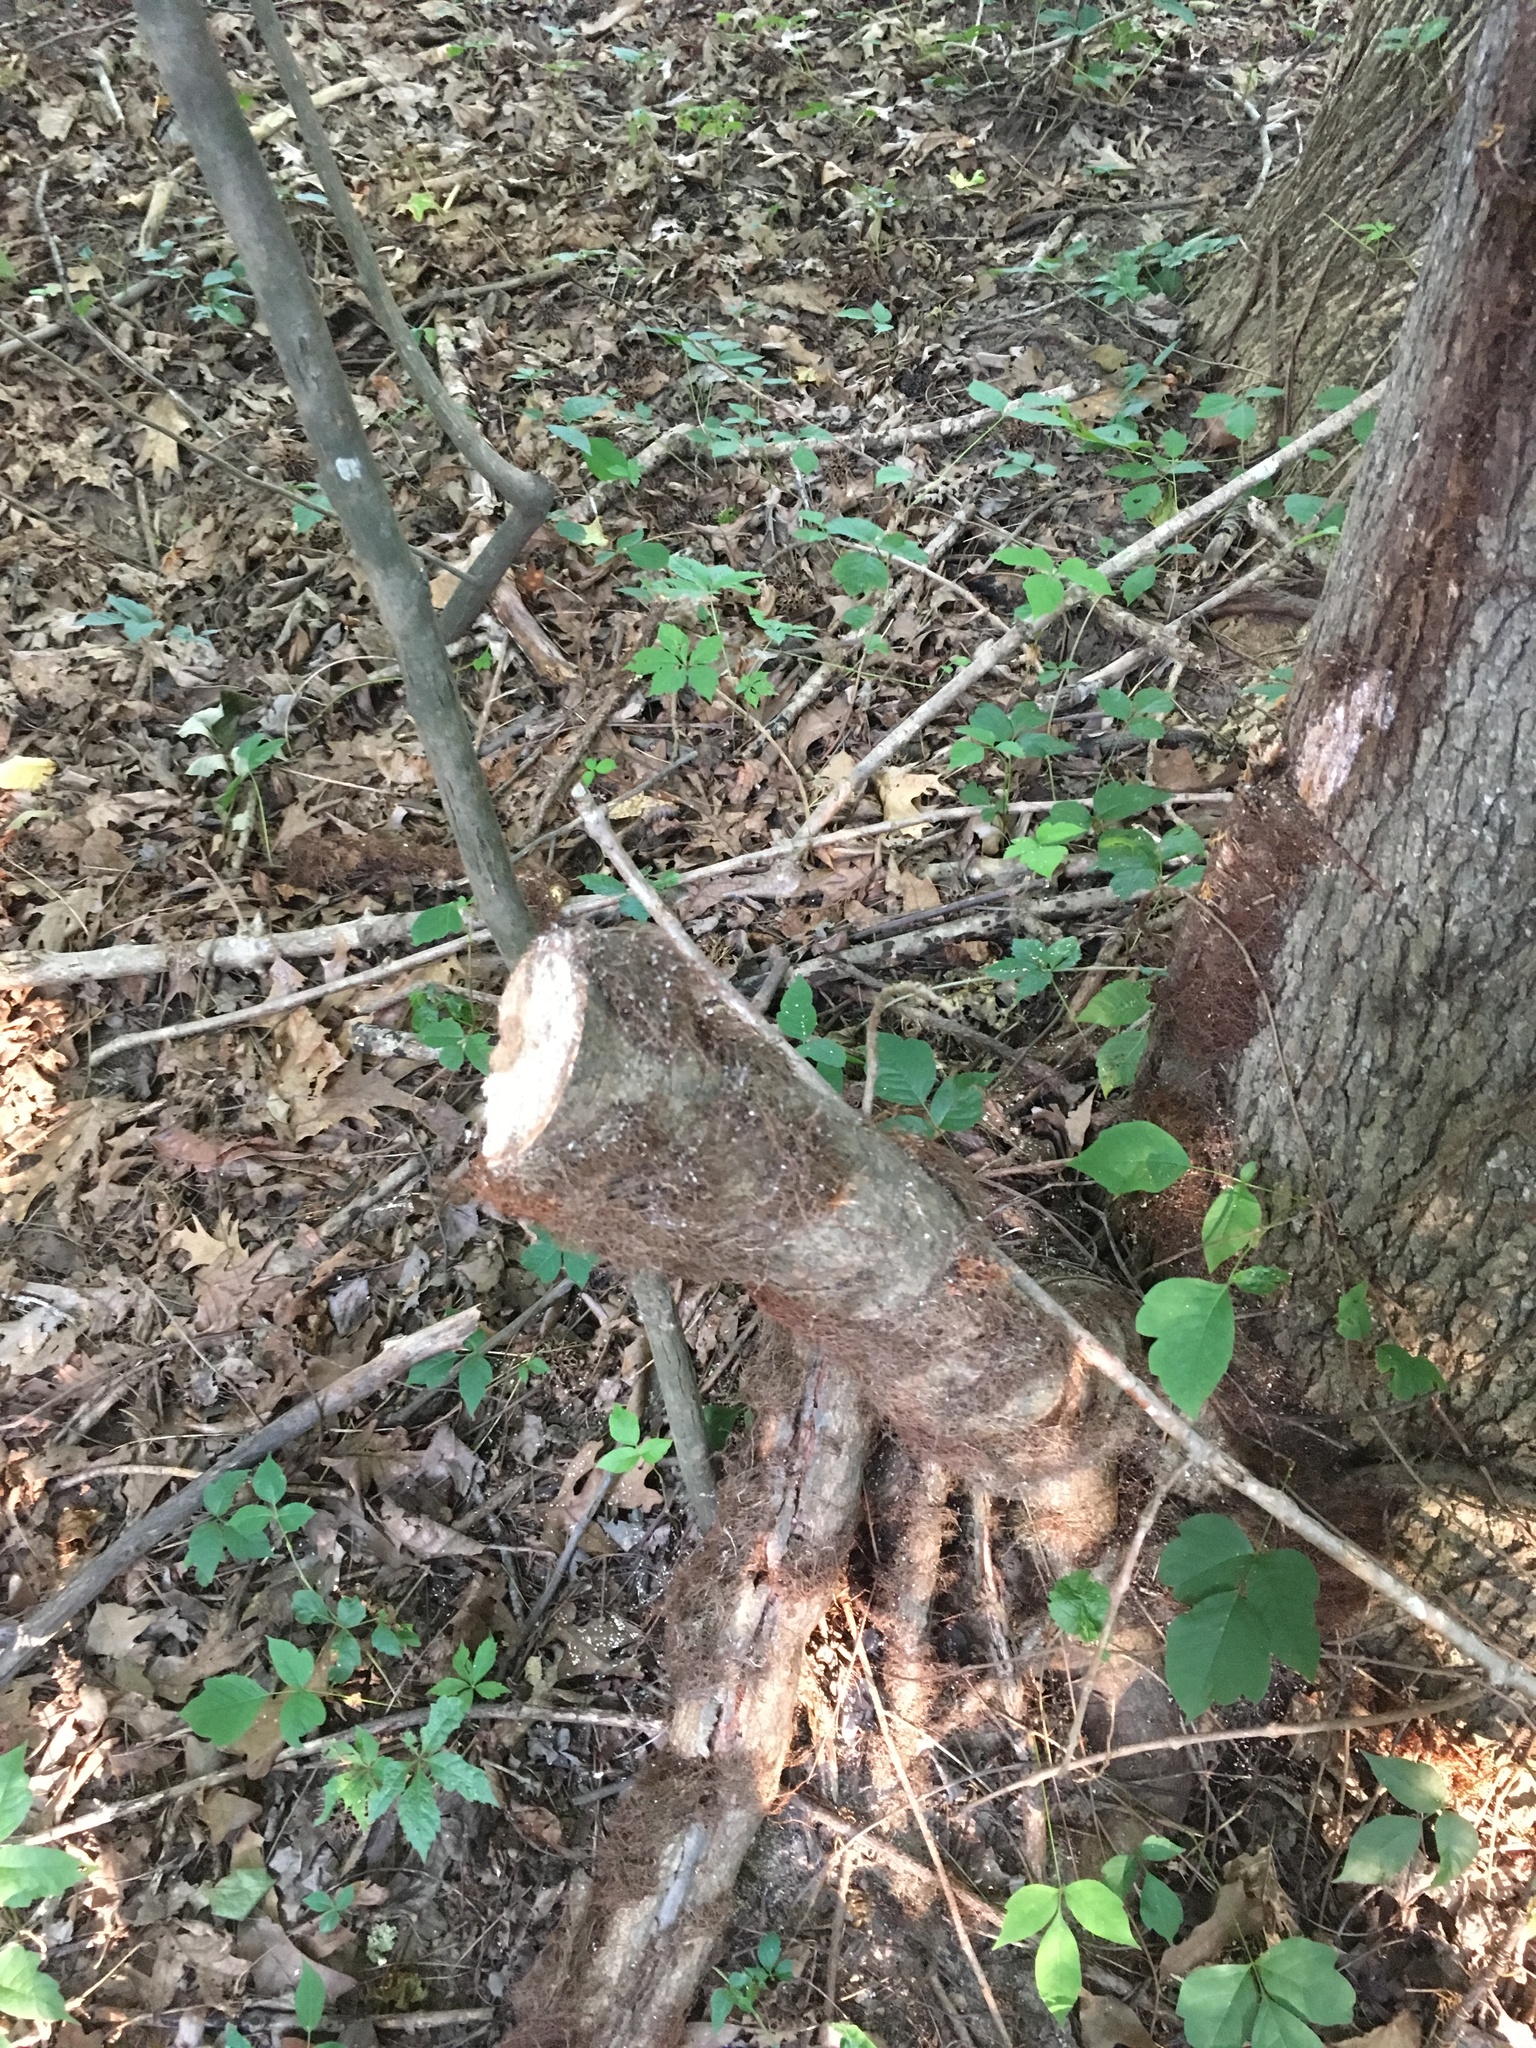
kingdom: Plantae
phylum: Tracheophyta
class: Magnoliopsida
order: Sapindales
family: Anacardiaceae
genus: Toxicodendron
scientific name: Toxicodendron radicans
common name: Poison ivy
